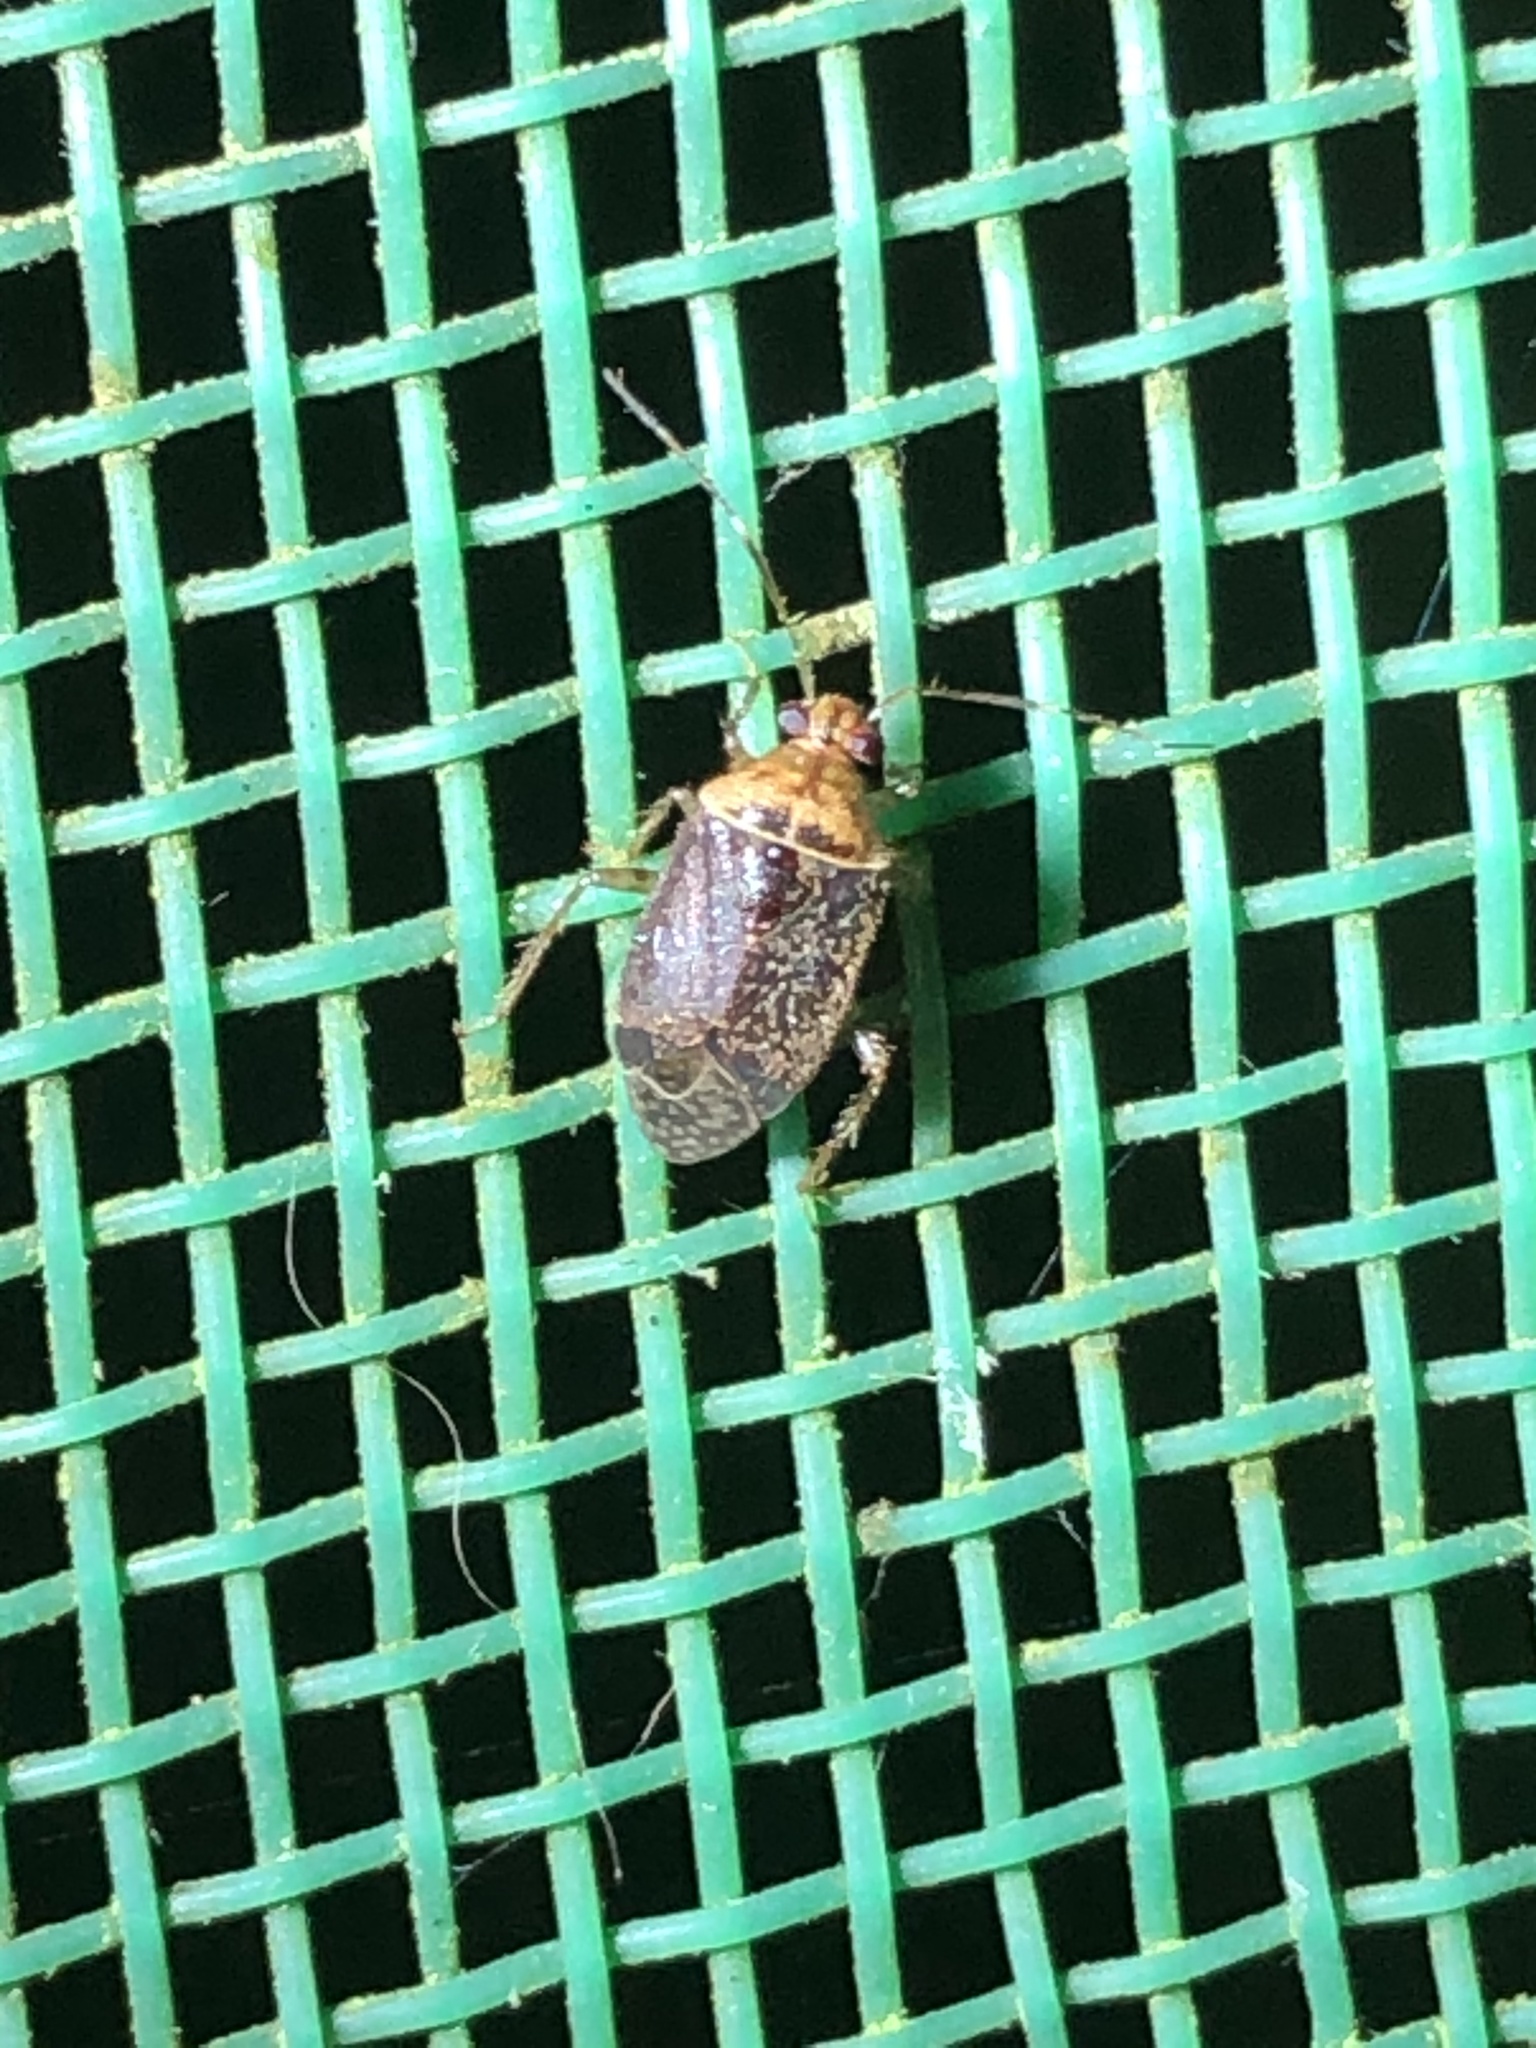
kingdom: Animalia
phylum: Arthropoda
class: Insecta
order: Hemiptera
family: Miridae
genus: Tropidosteptes
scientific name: Tropidosteptes hirsutus
